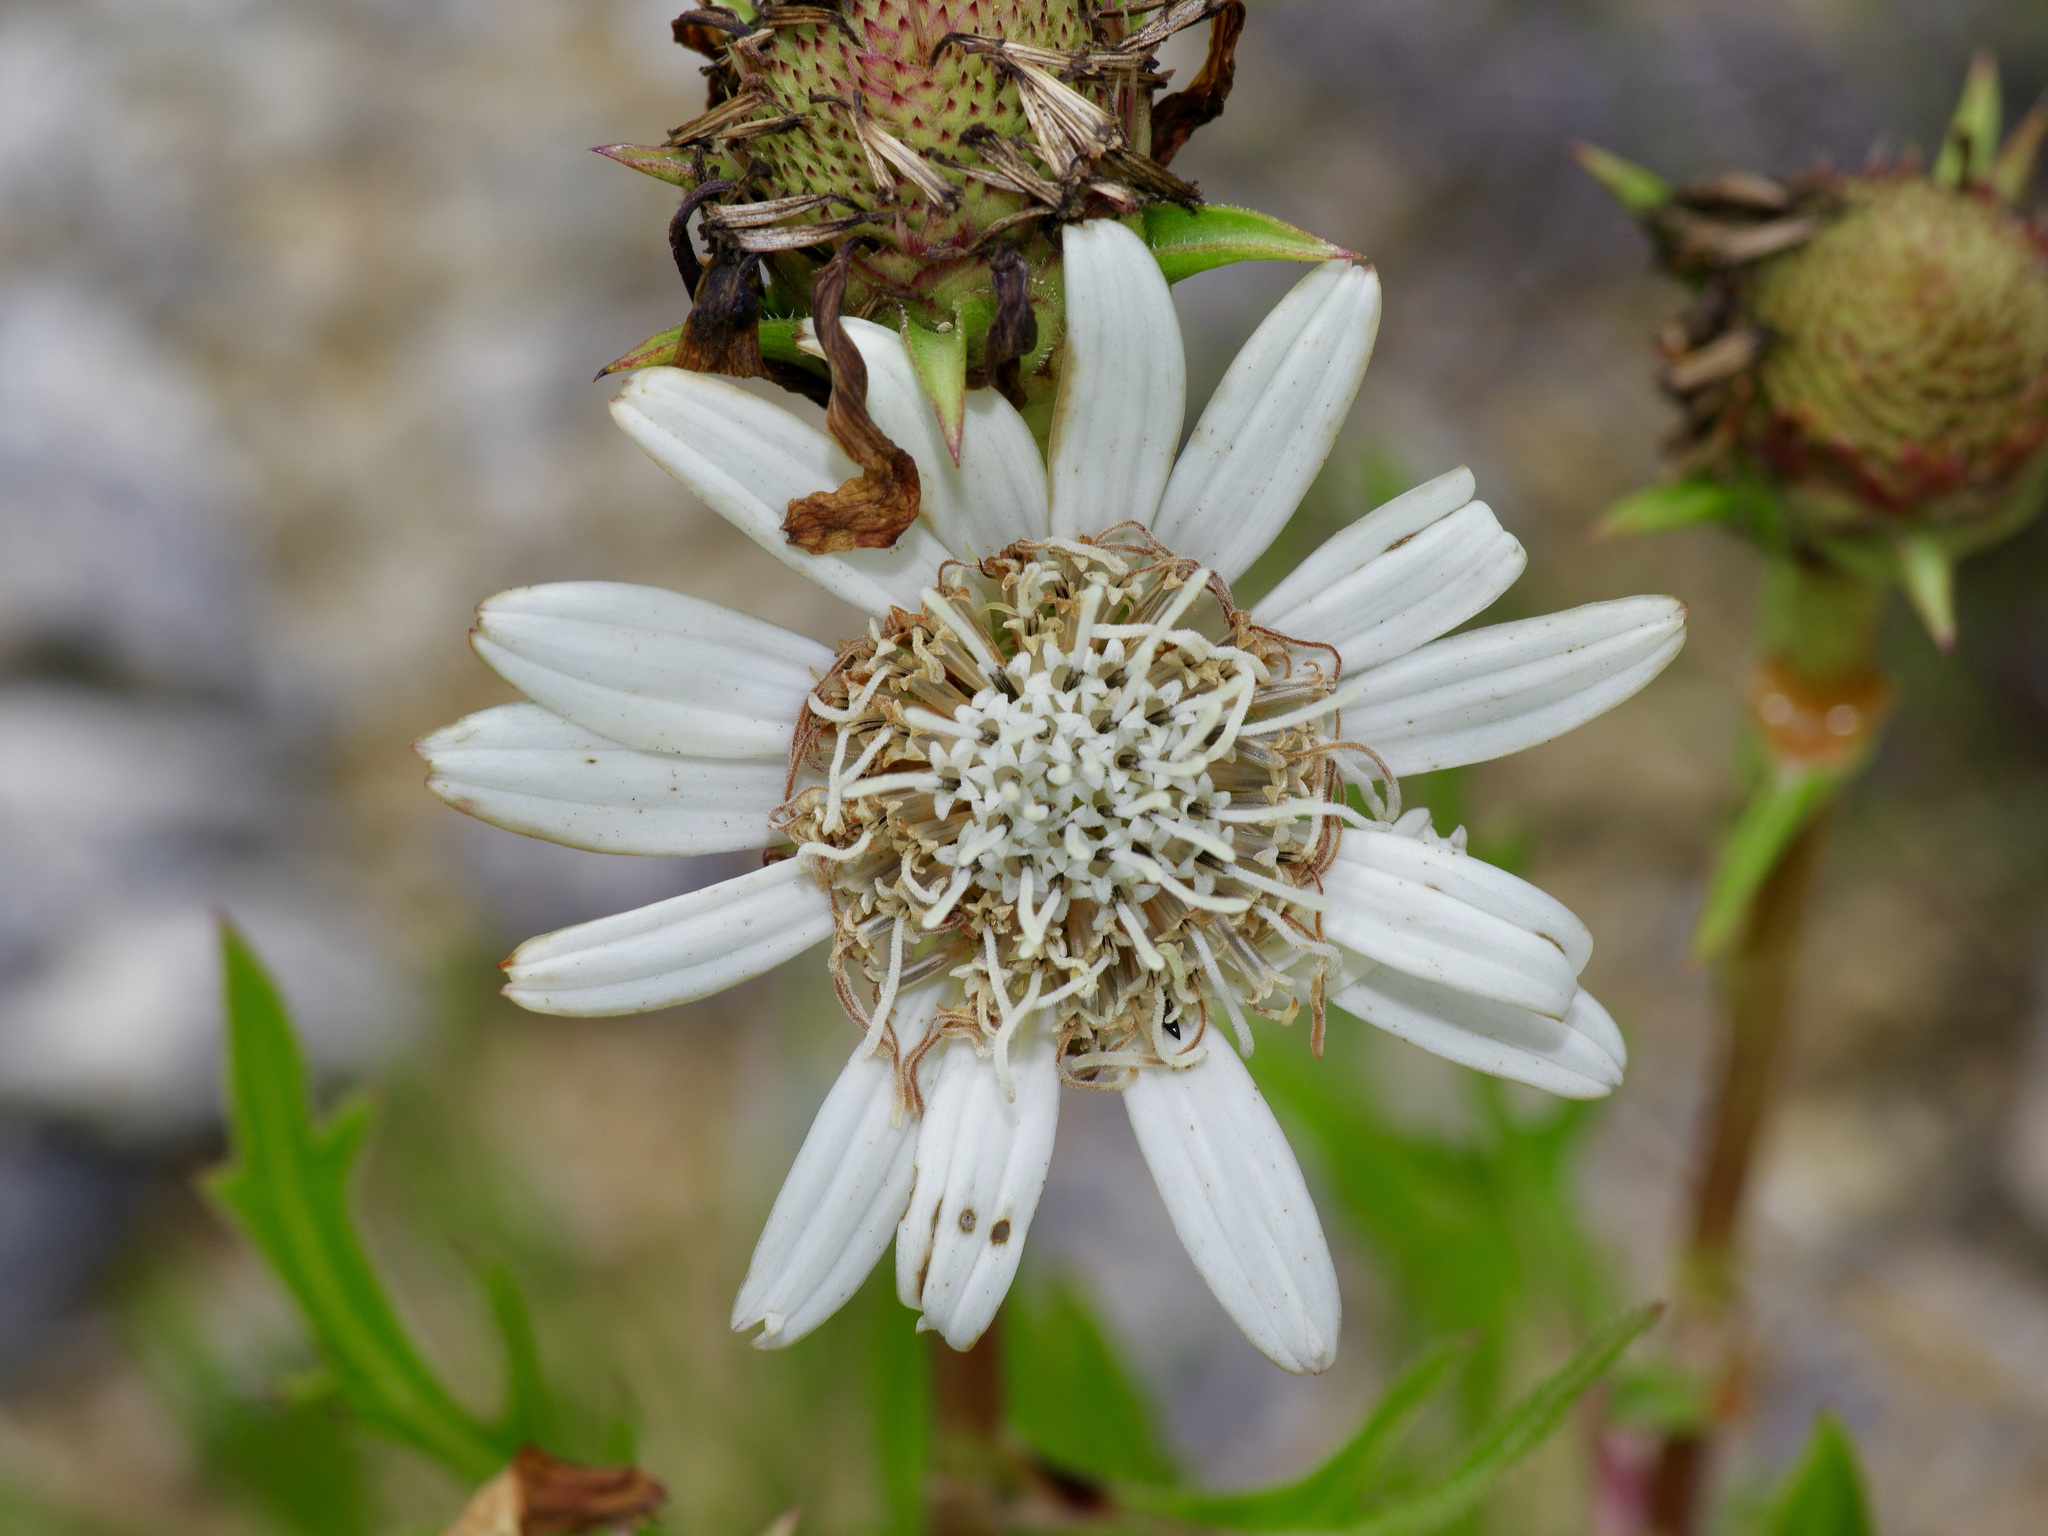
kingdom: Plantae
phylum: Tracheophyta
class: Magnoliopsida
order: Asterales
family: Asteraceae
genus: Silphium
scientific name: Silphium albiflorum
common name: White rosinweed
